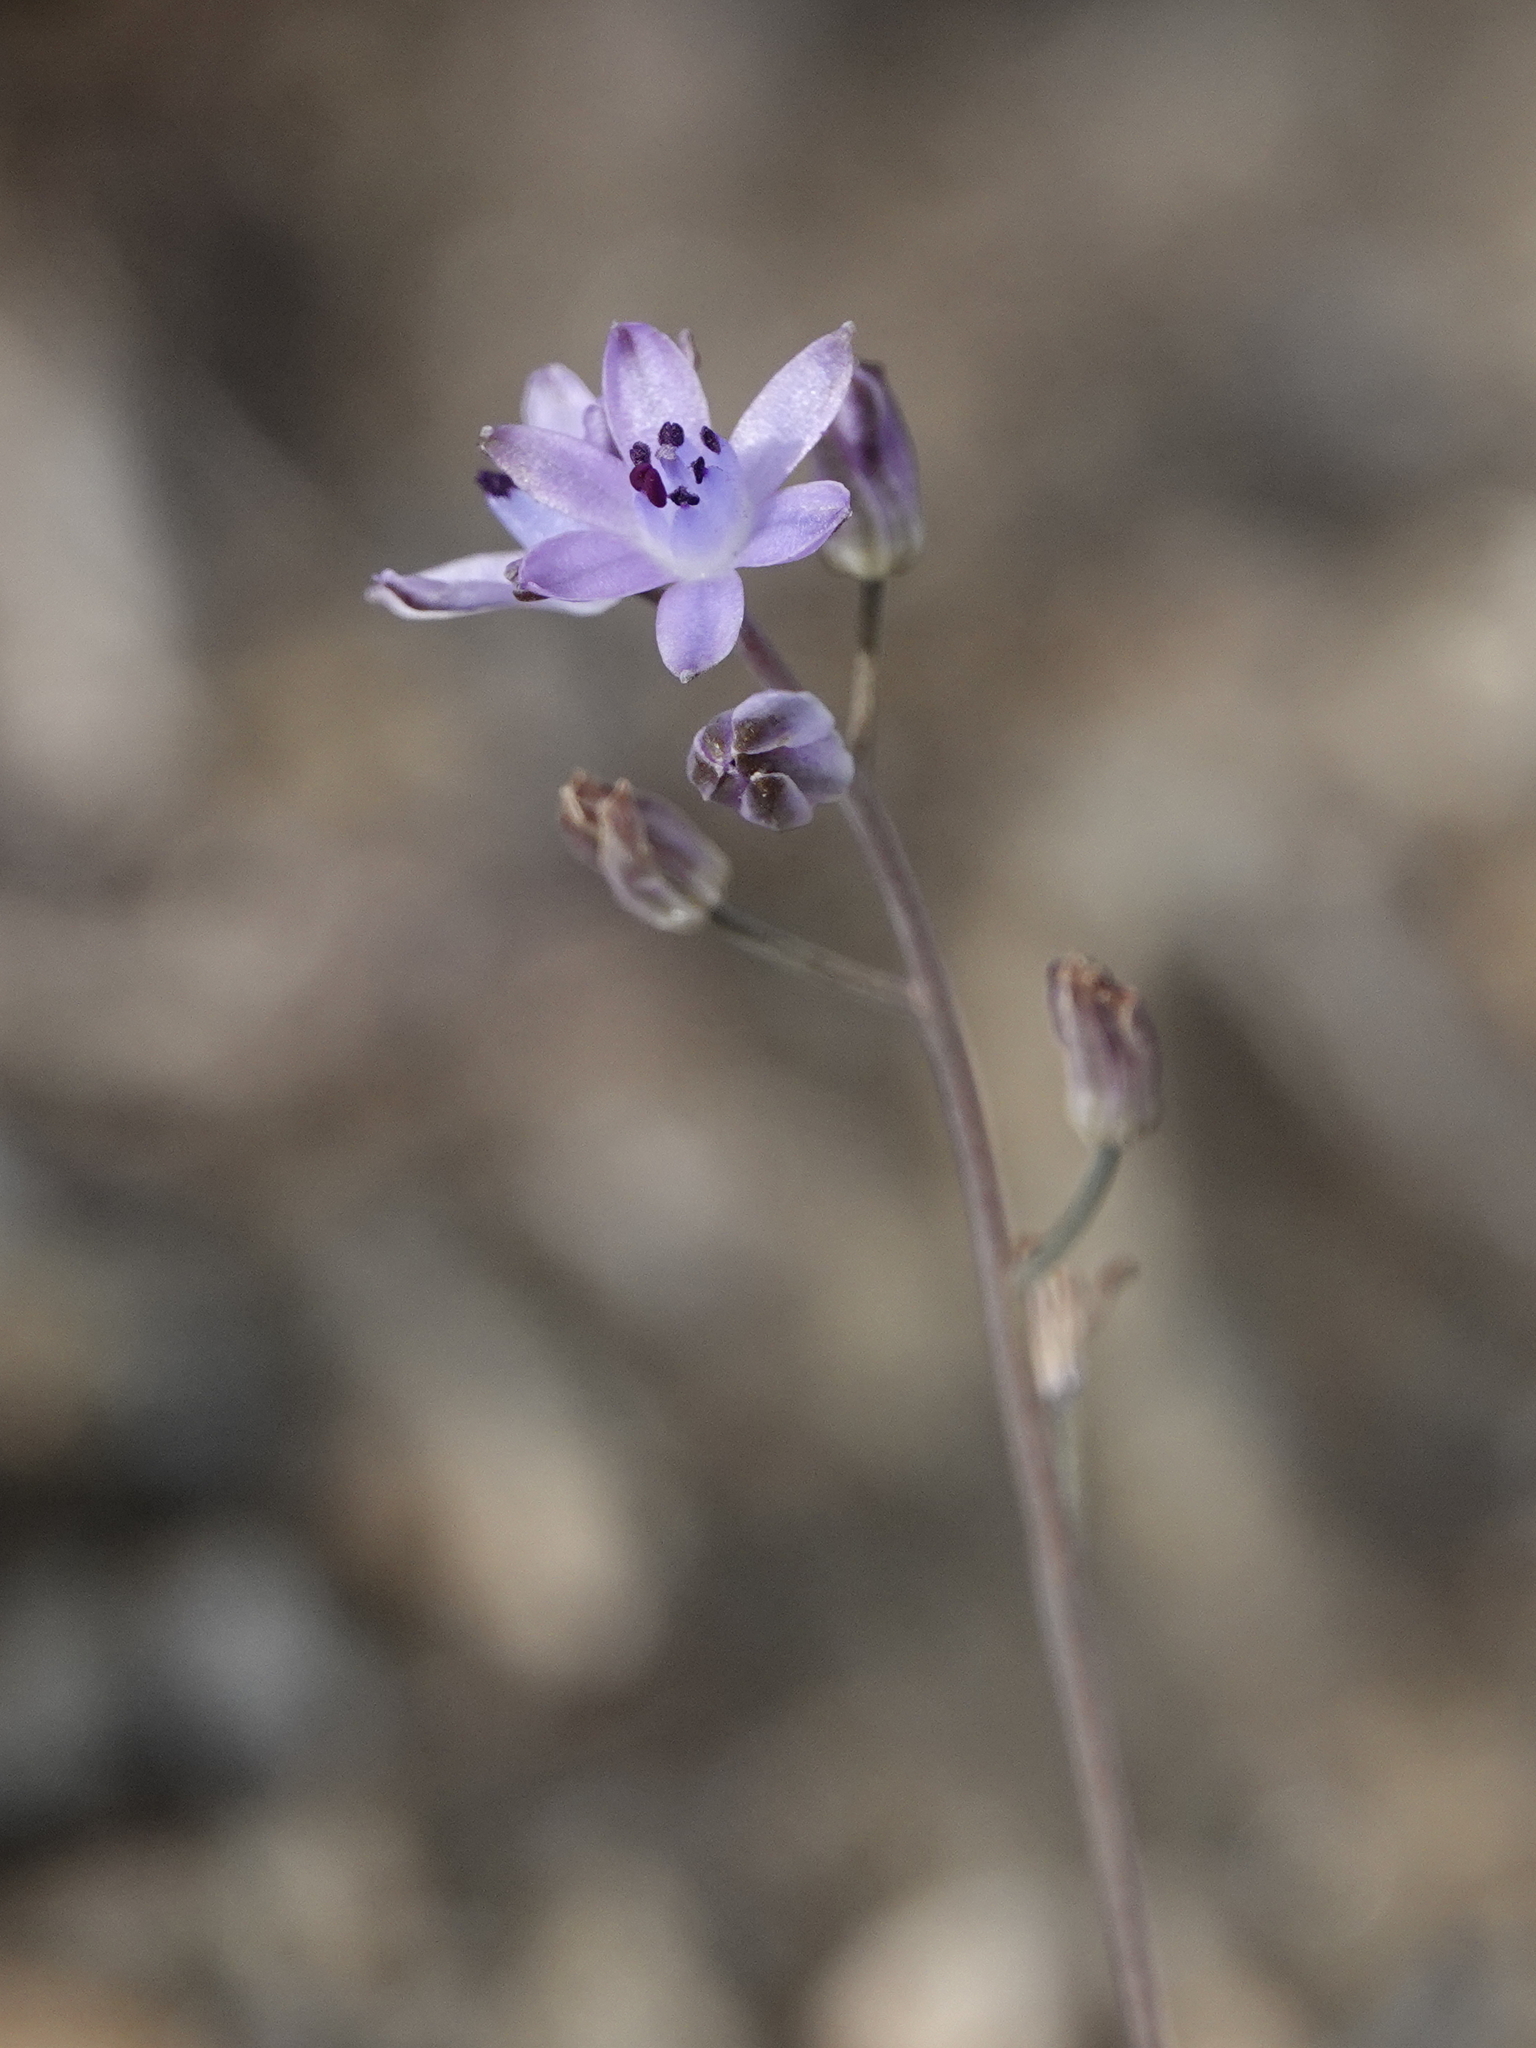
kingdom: Plantae
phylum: Tracheophyta
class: Liliopsida
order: Asparagales
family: Asparagaceae
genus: Prospero
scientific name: Prospero autumnale
